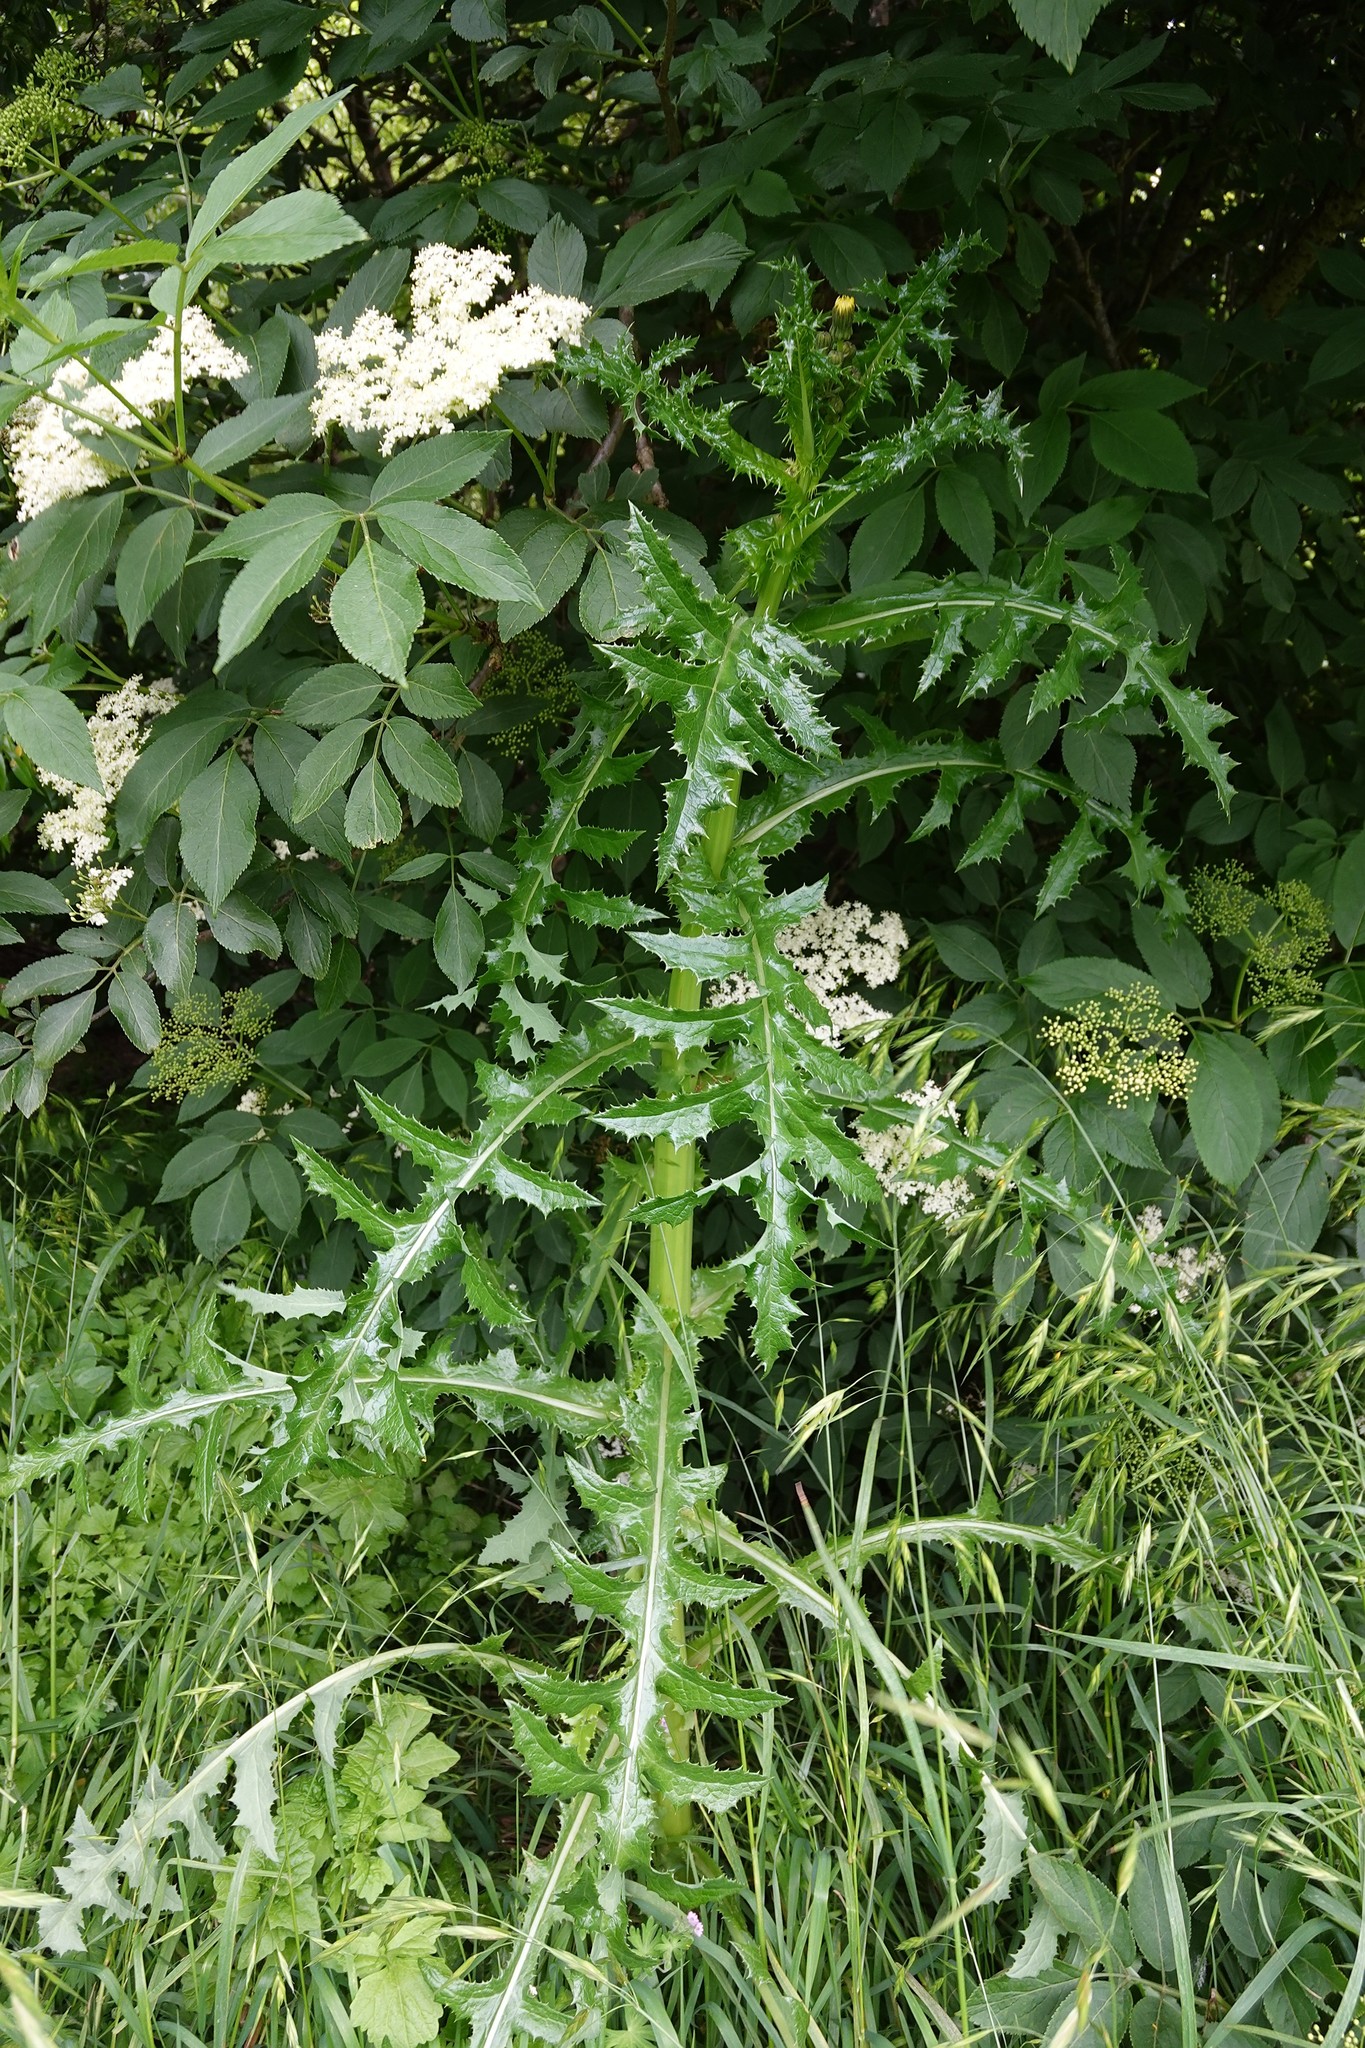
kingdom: Plantae
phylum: Tracheophyta
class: Magnoliopsida
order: Asterales
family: Asteraceae
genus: Sonchus
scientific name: Sonchus asper
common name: Prickly sow-thistle
